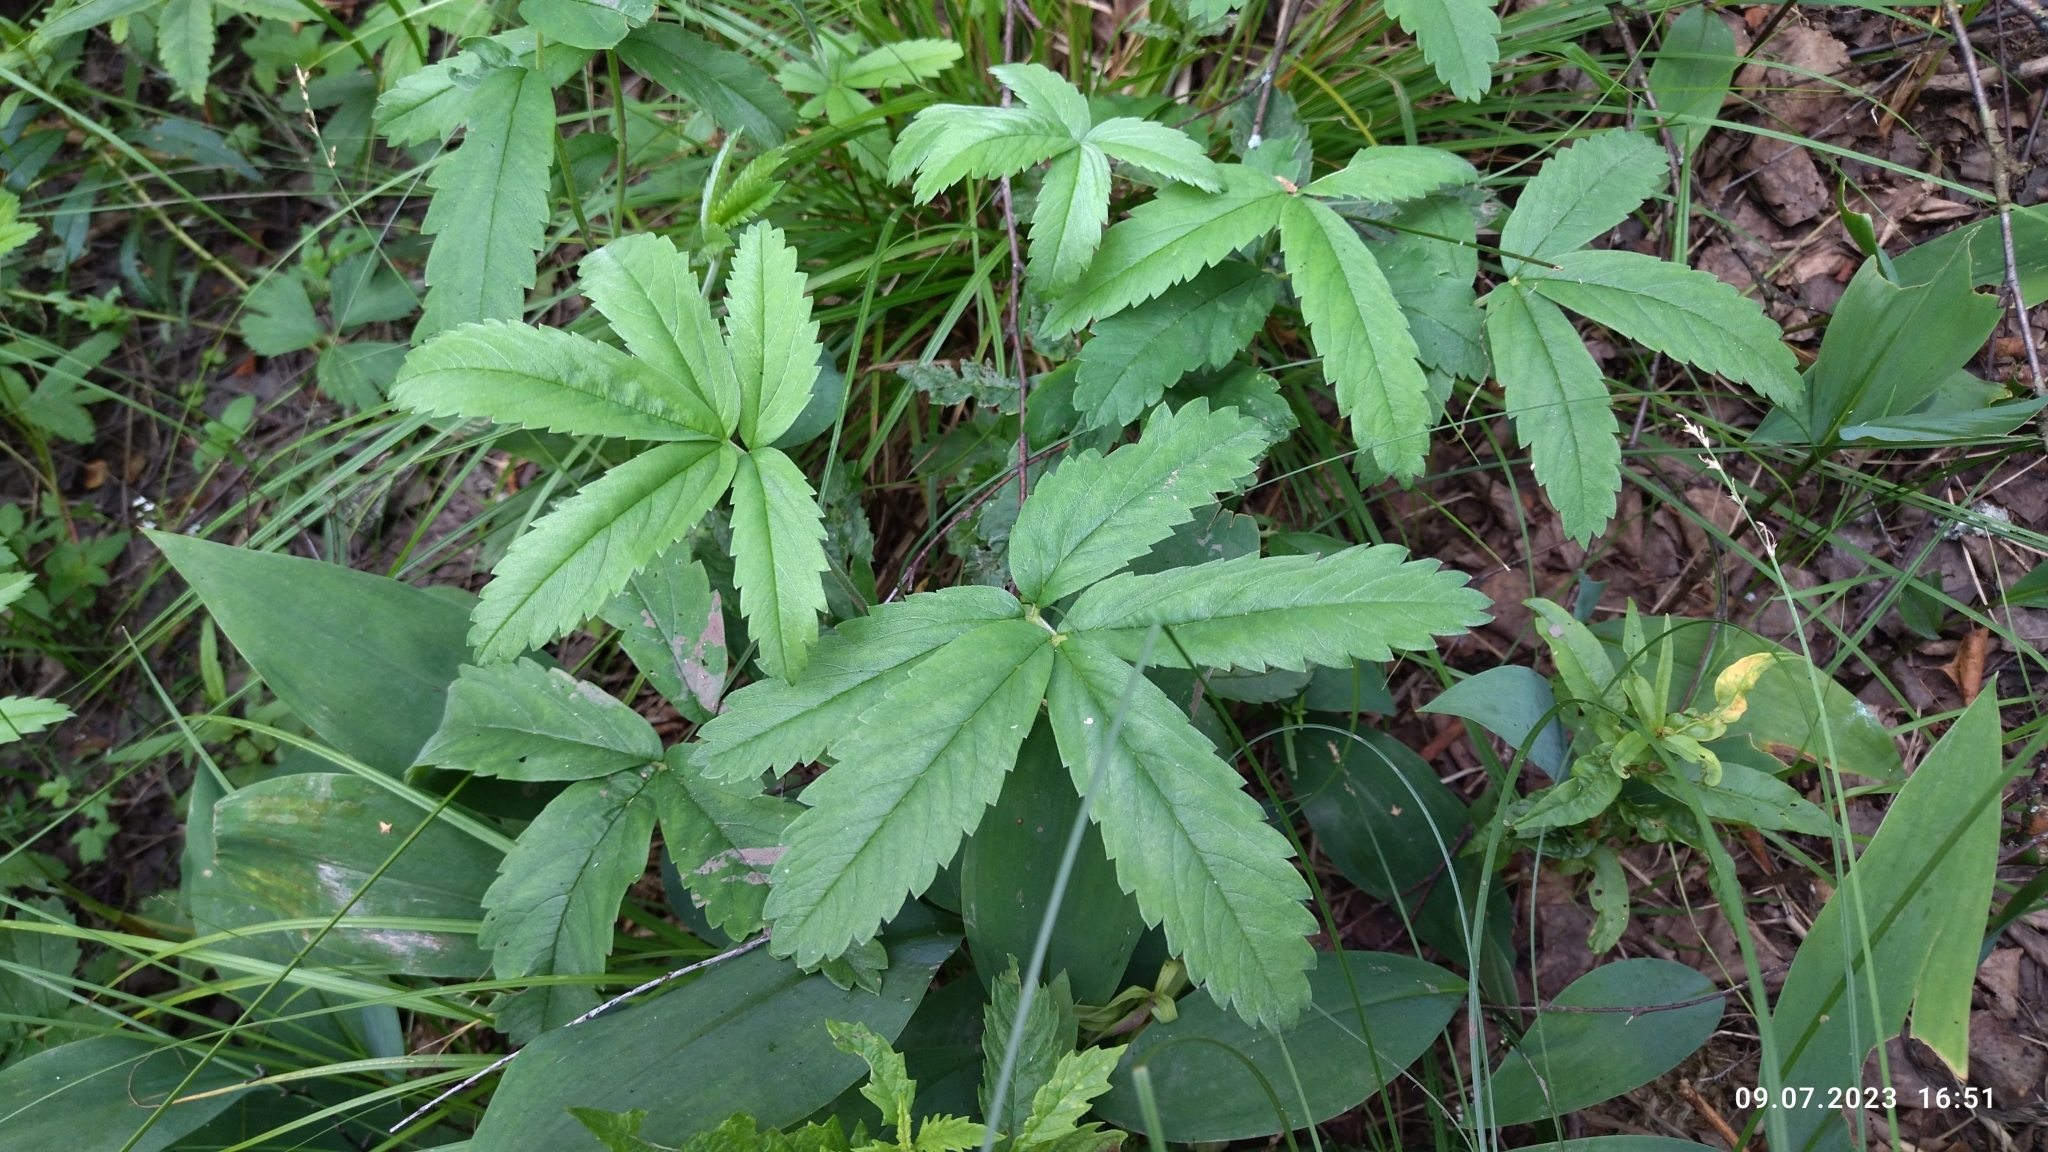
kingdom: Plantae
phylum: Tracheophyta
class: Magnoliopsida
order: Rosales
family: Rosaceae
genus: Comarum
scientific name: Comarum palustre
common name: Marsh cinquefoil
